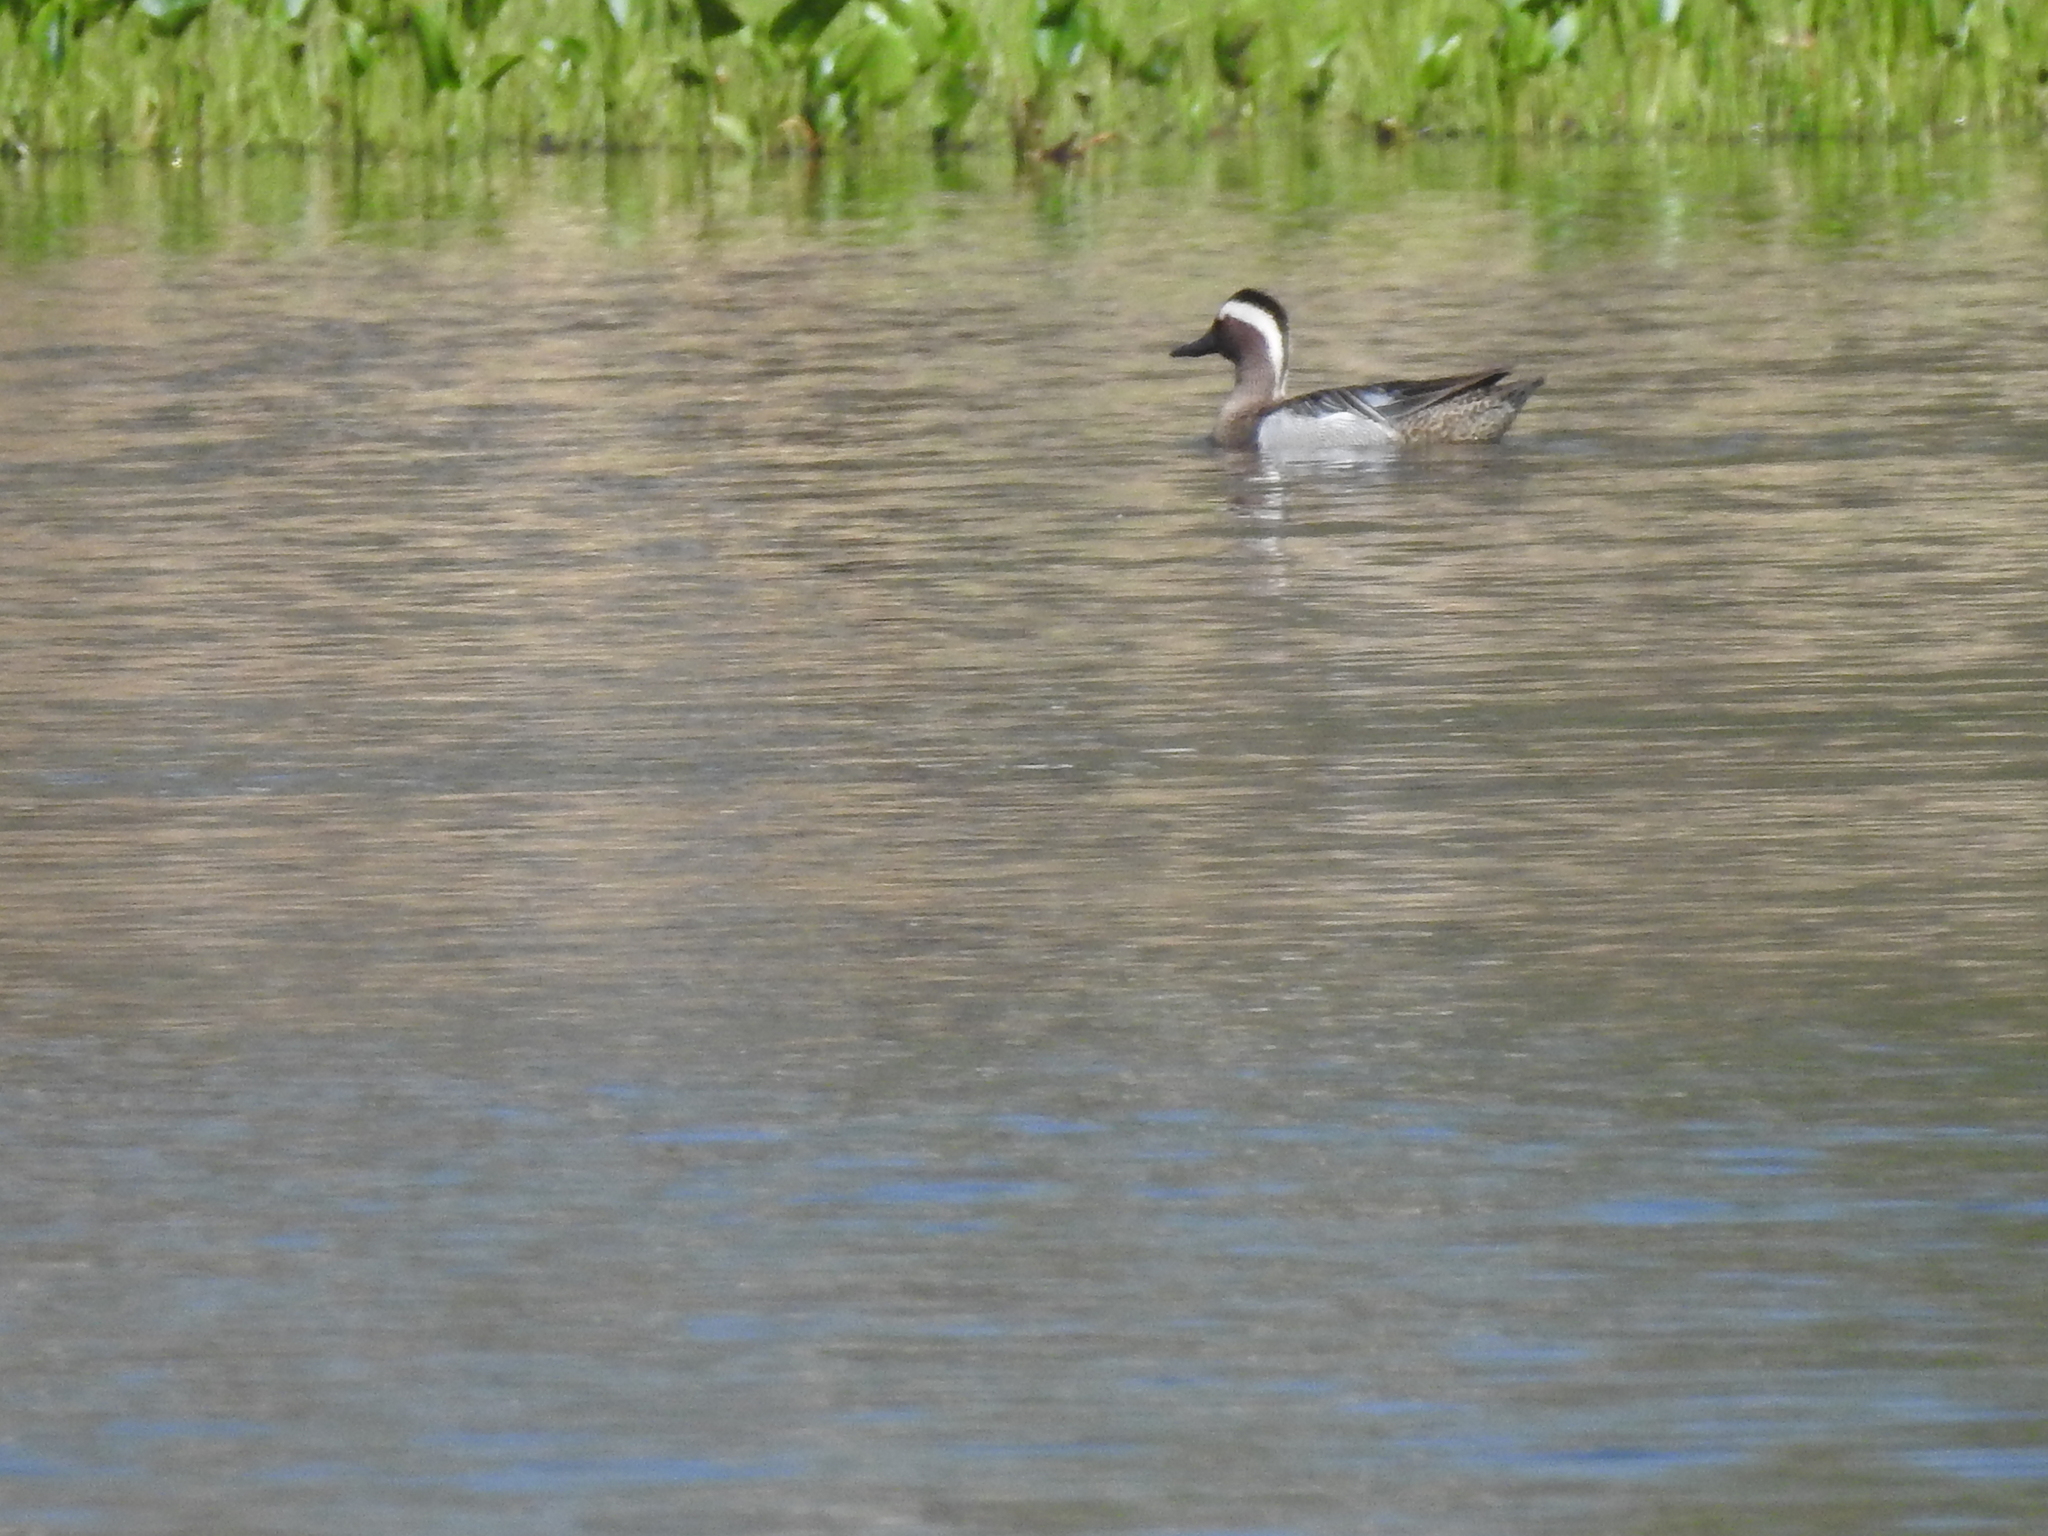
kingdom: Animalia
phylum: Chordata
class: Aves
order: Anseriformes
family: Anatidae
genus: Spatula
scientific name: Spatula querquedula
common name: Garganey
